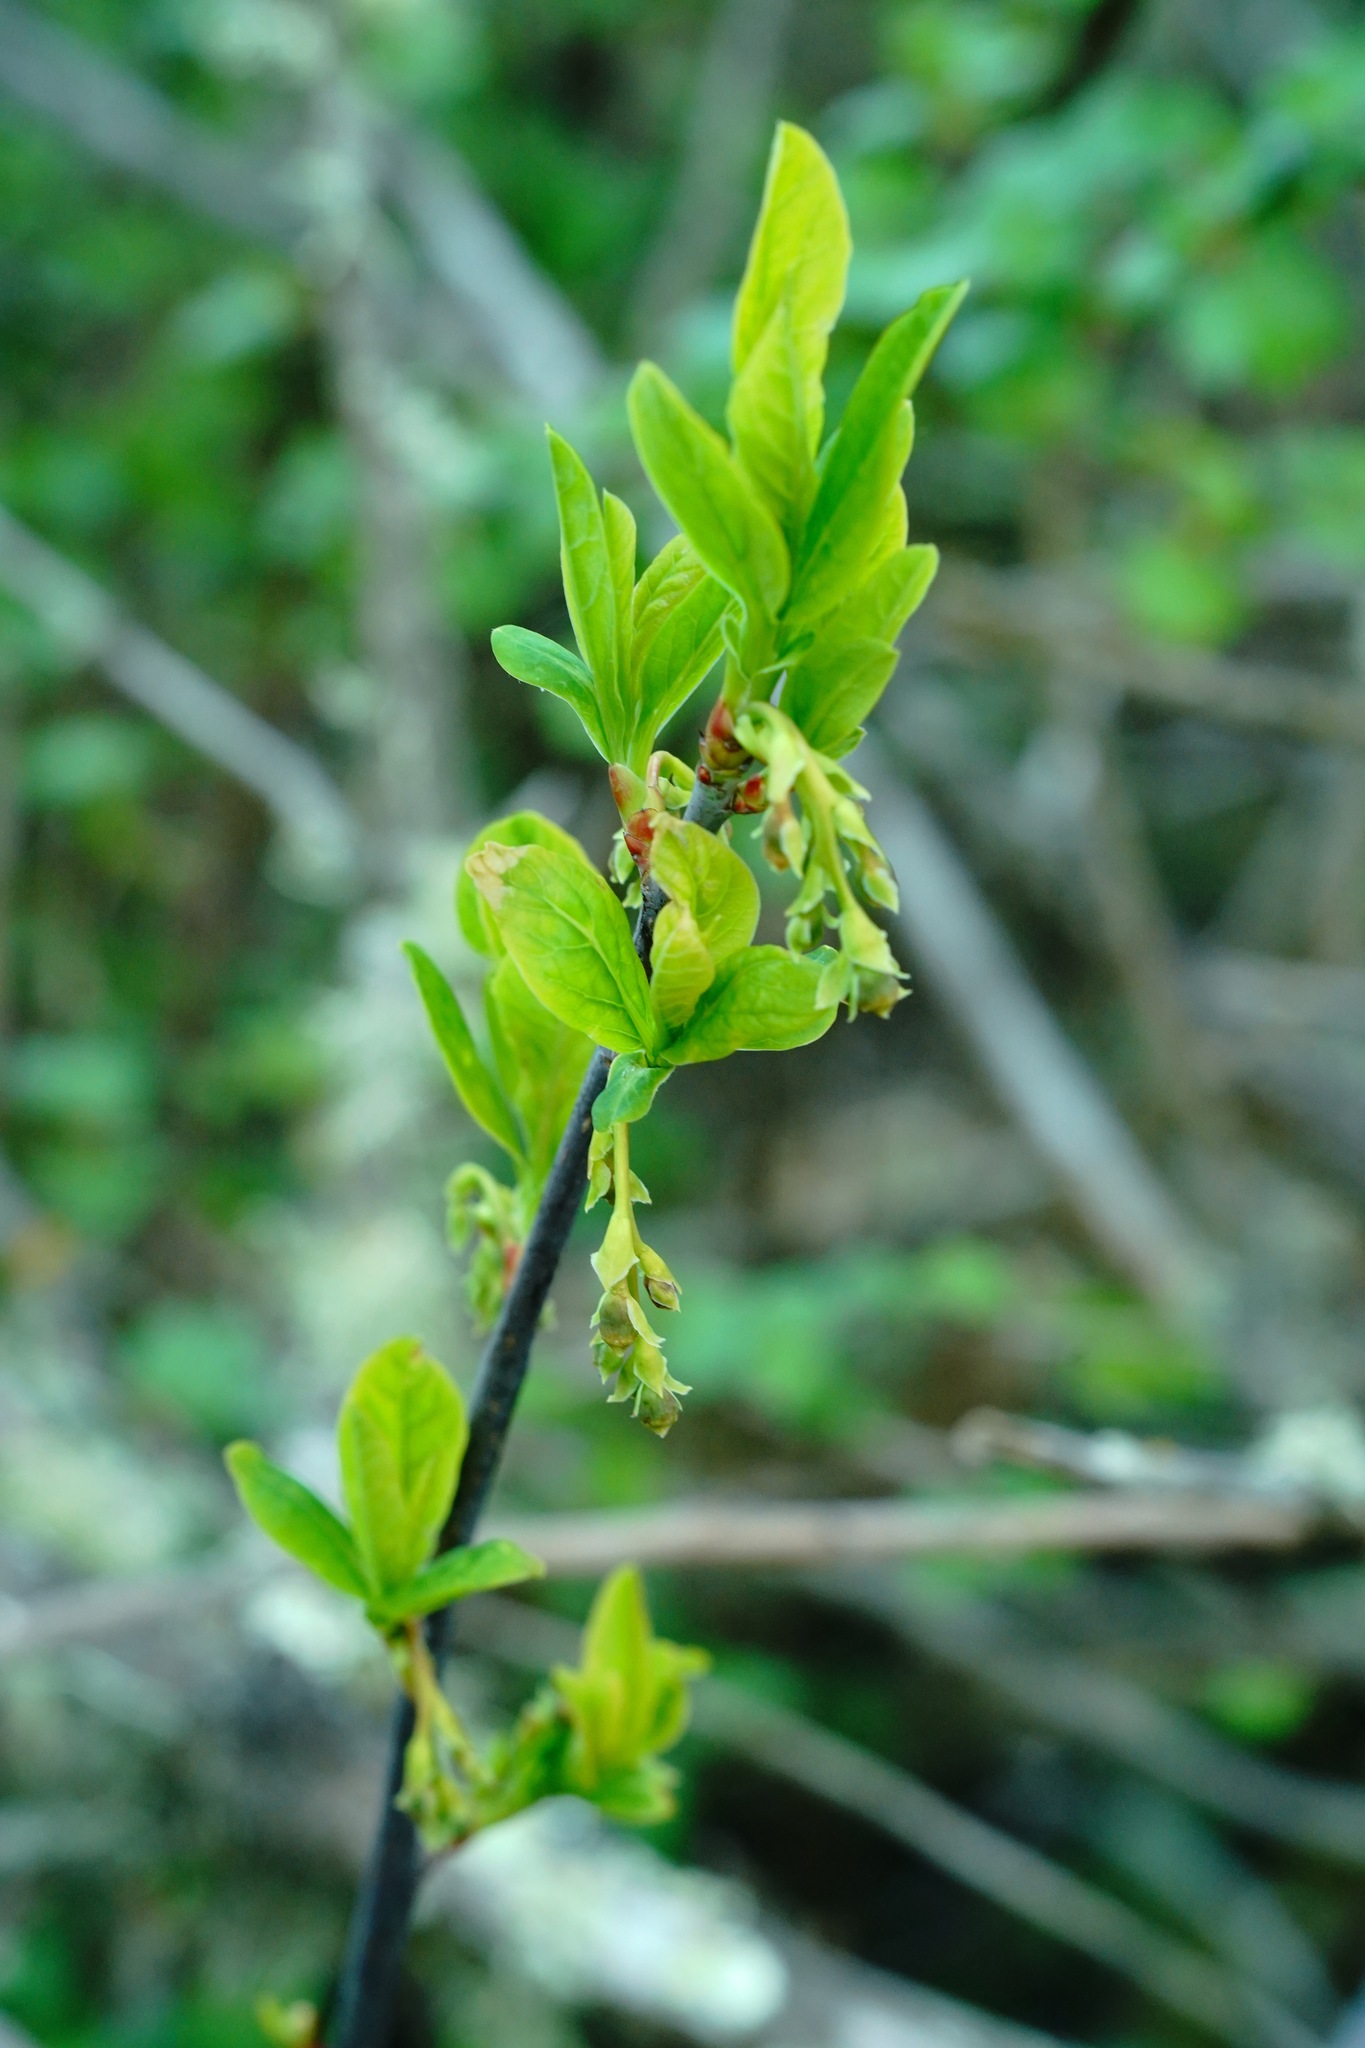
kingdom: Plantae
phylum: Tracheophyta
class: Magnoliopsida
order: Rosales
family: Rosaceae
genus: Oemleria
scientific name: Oemleria cerasiformis
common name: Osoberry
